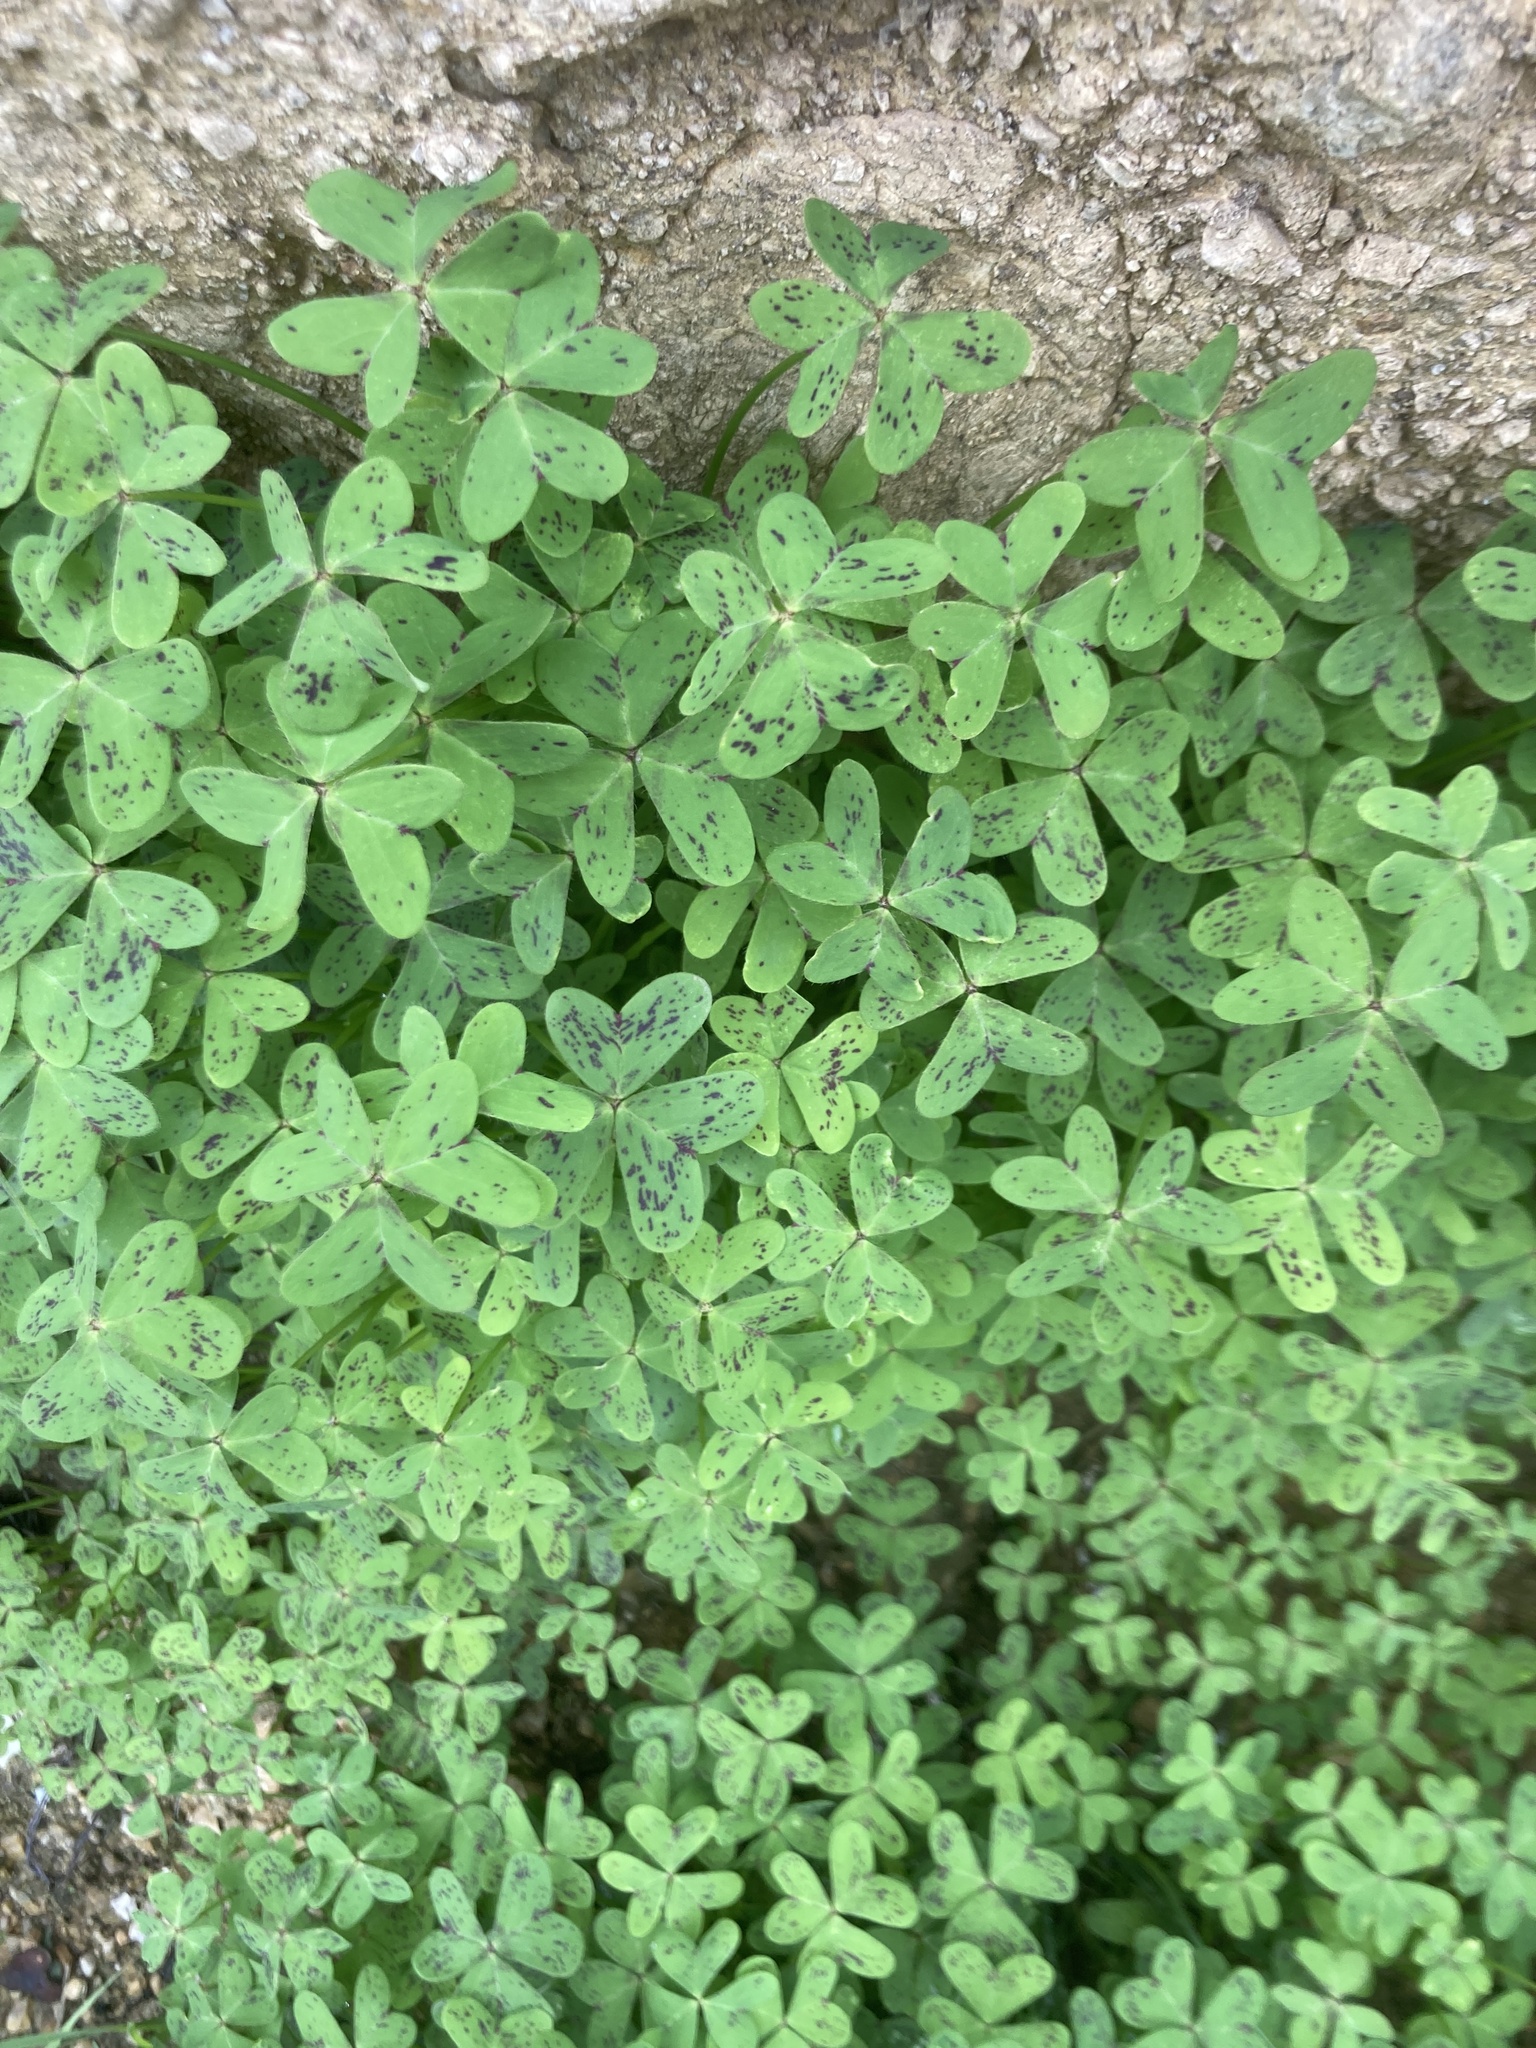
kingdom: Plantae
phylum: Tracheophyta
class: Magnoliopsida
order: Oxalidales
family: Oxalidaceae
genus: Oxalis
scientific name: Oxalis pes-caprae
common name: Bermuda-buttercup
